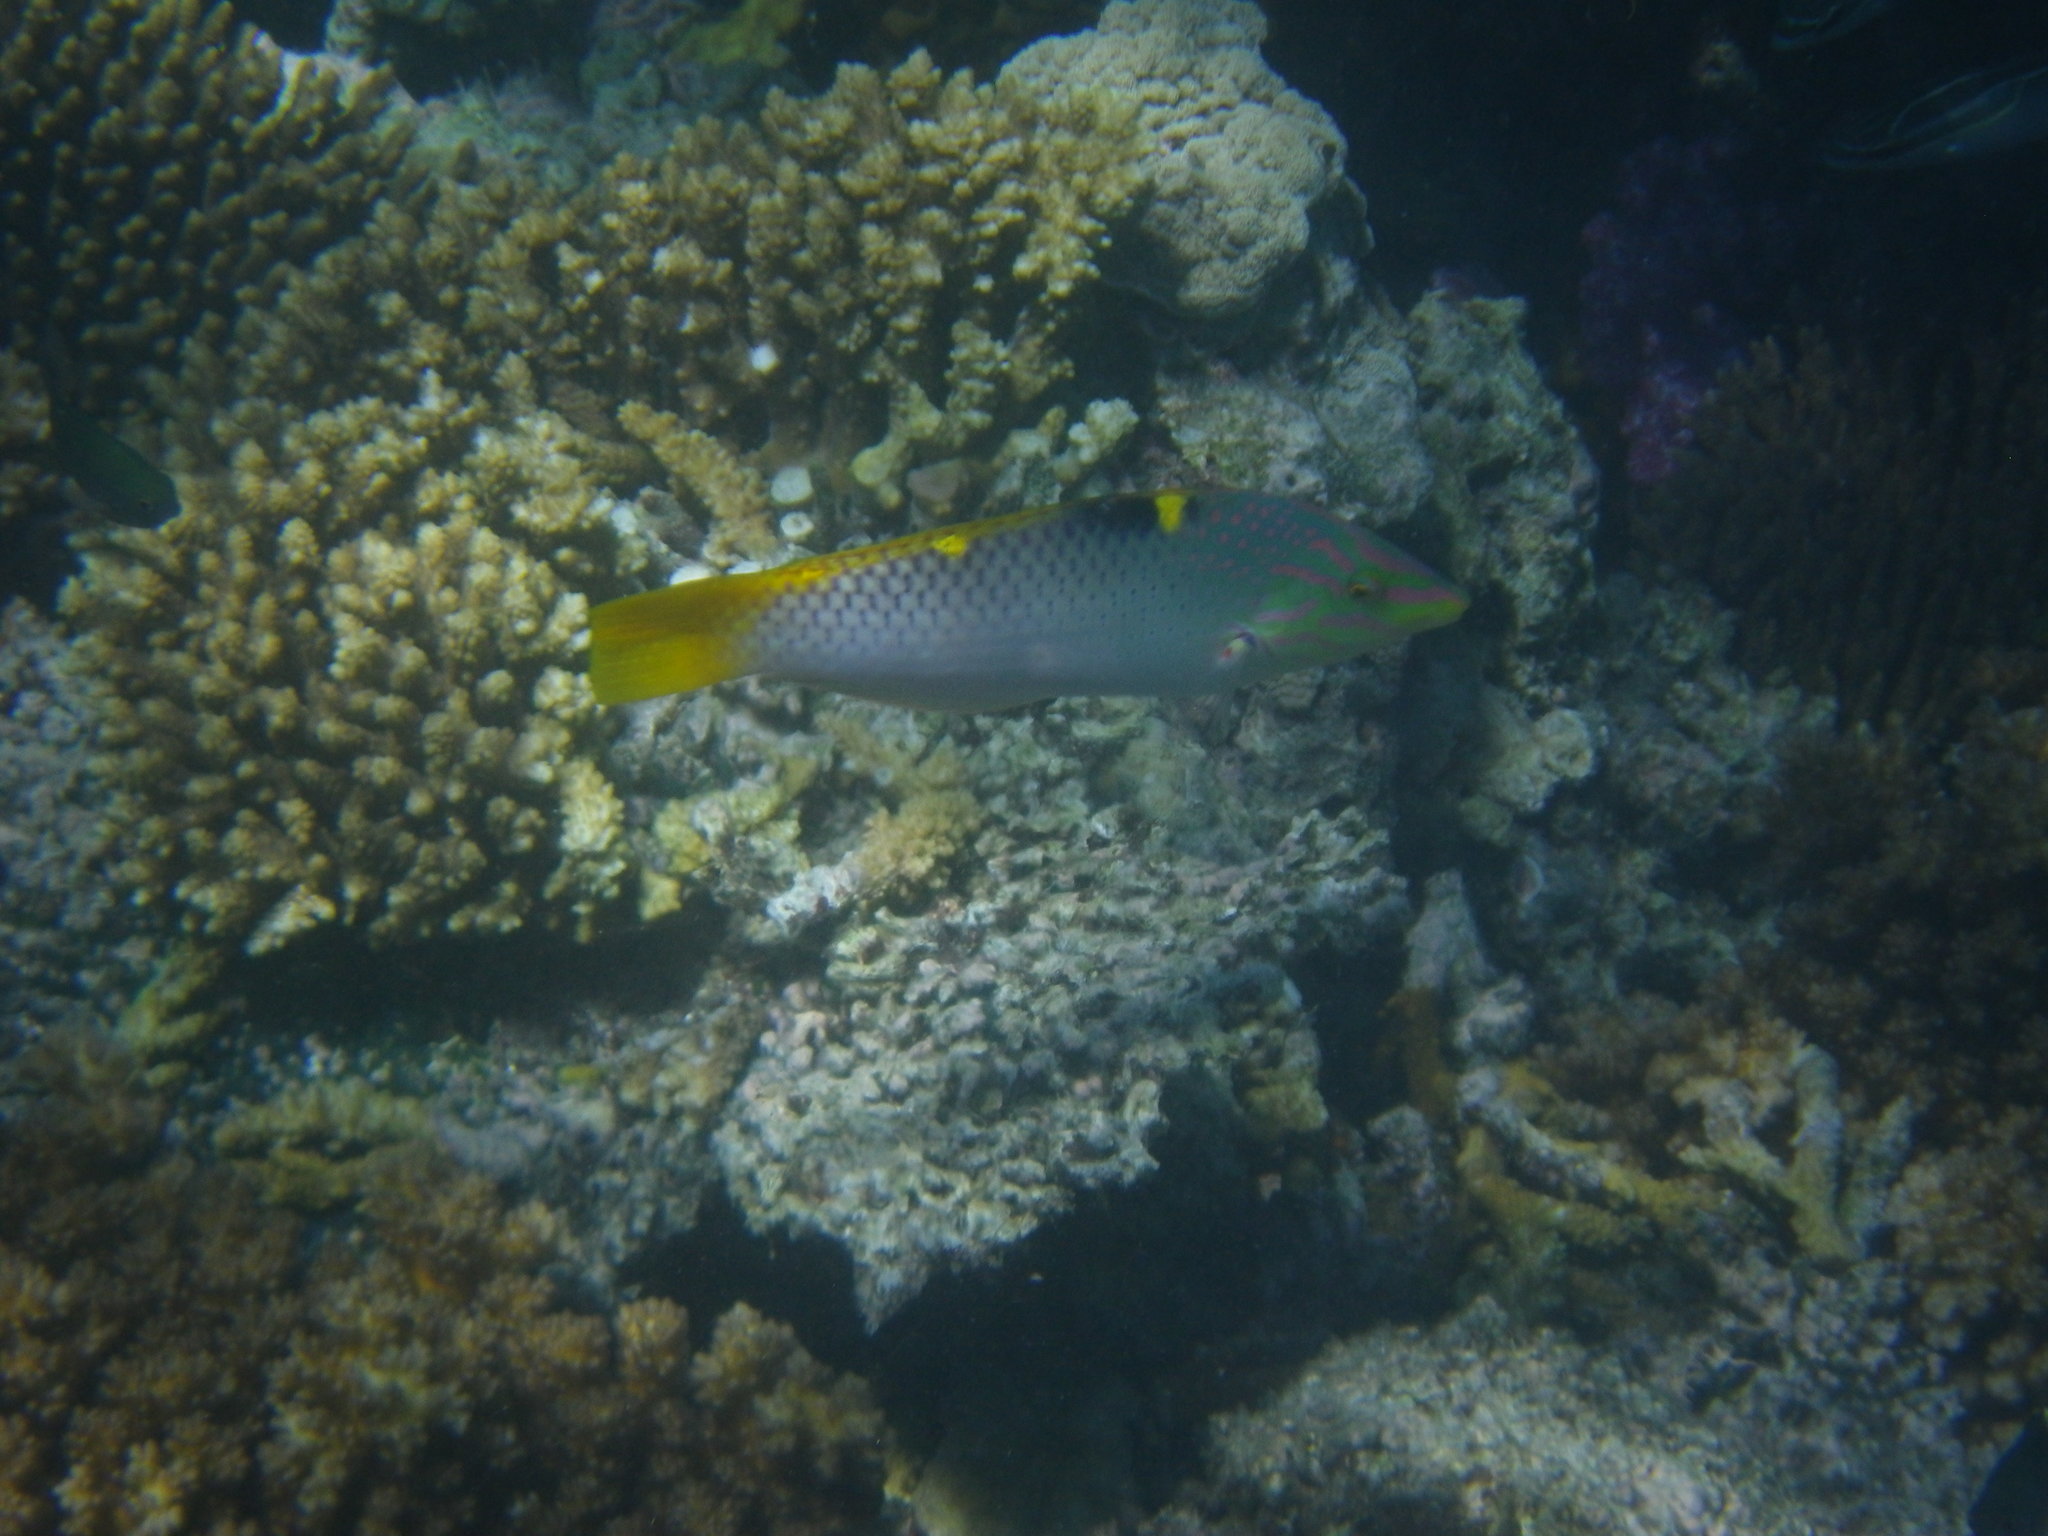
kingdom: Animalia
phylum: Chordata
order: Perciformes
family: Labridae
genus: Halichoeres
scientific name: Halichoeres hortulanus
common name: Checkerboard wrasse
